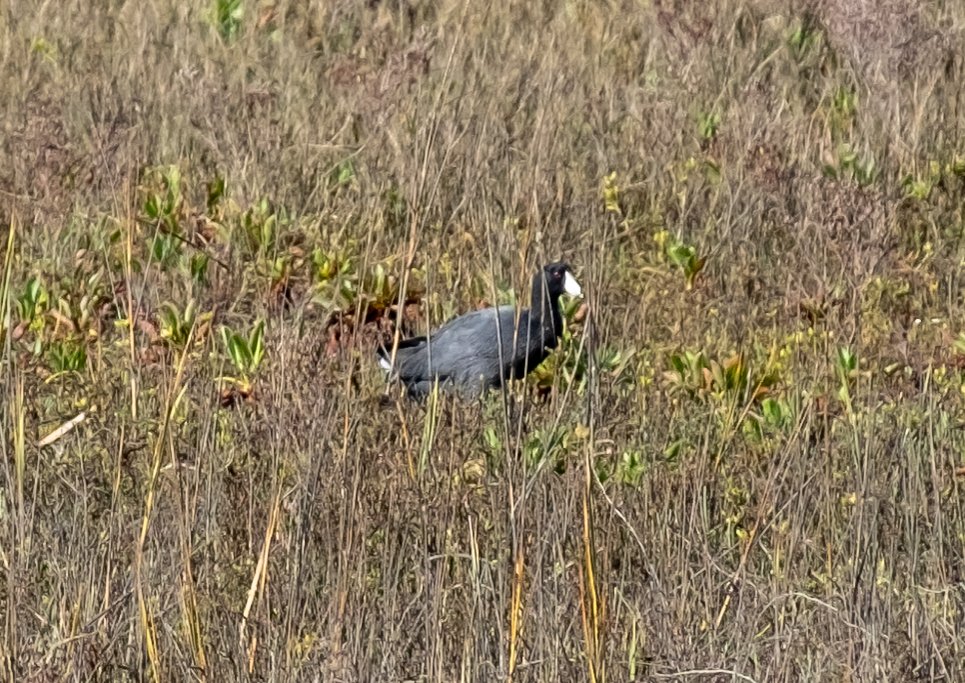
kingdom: Animalia
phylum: Chordata
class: Aves
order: Gruiformes
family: Rallidae
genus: Fulica
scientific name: Fulica americana
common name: American coot
